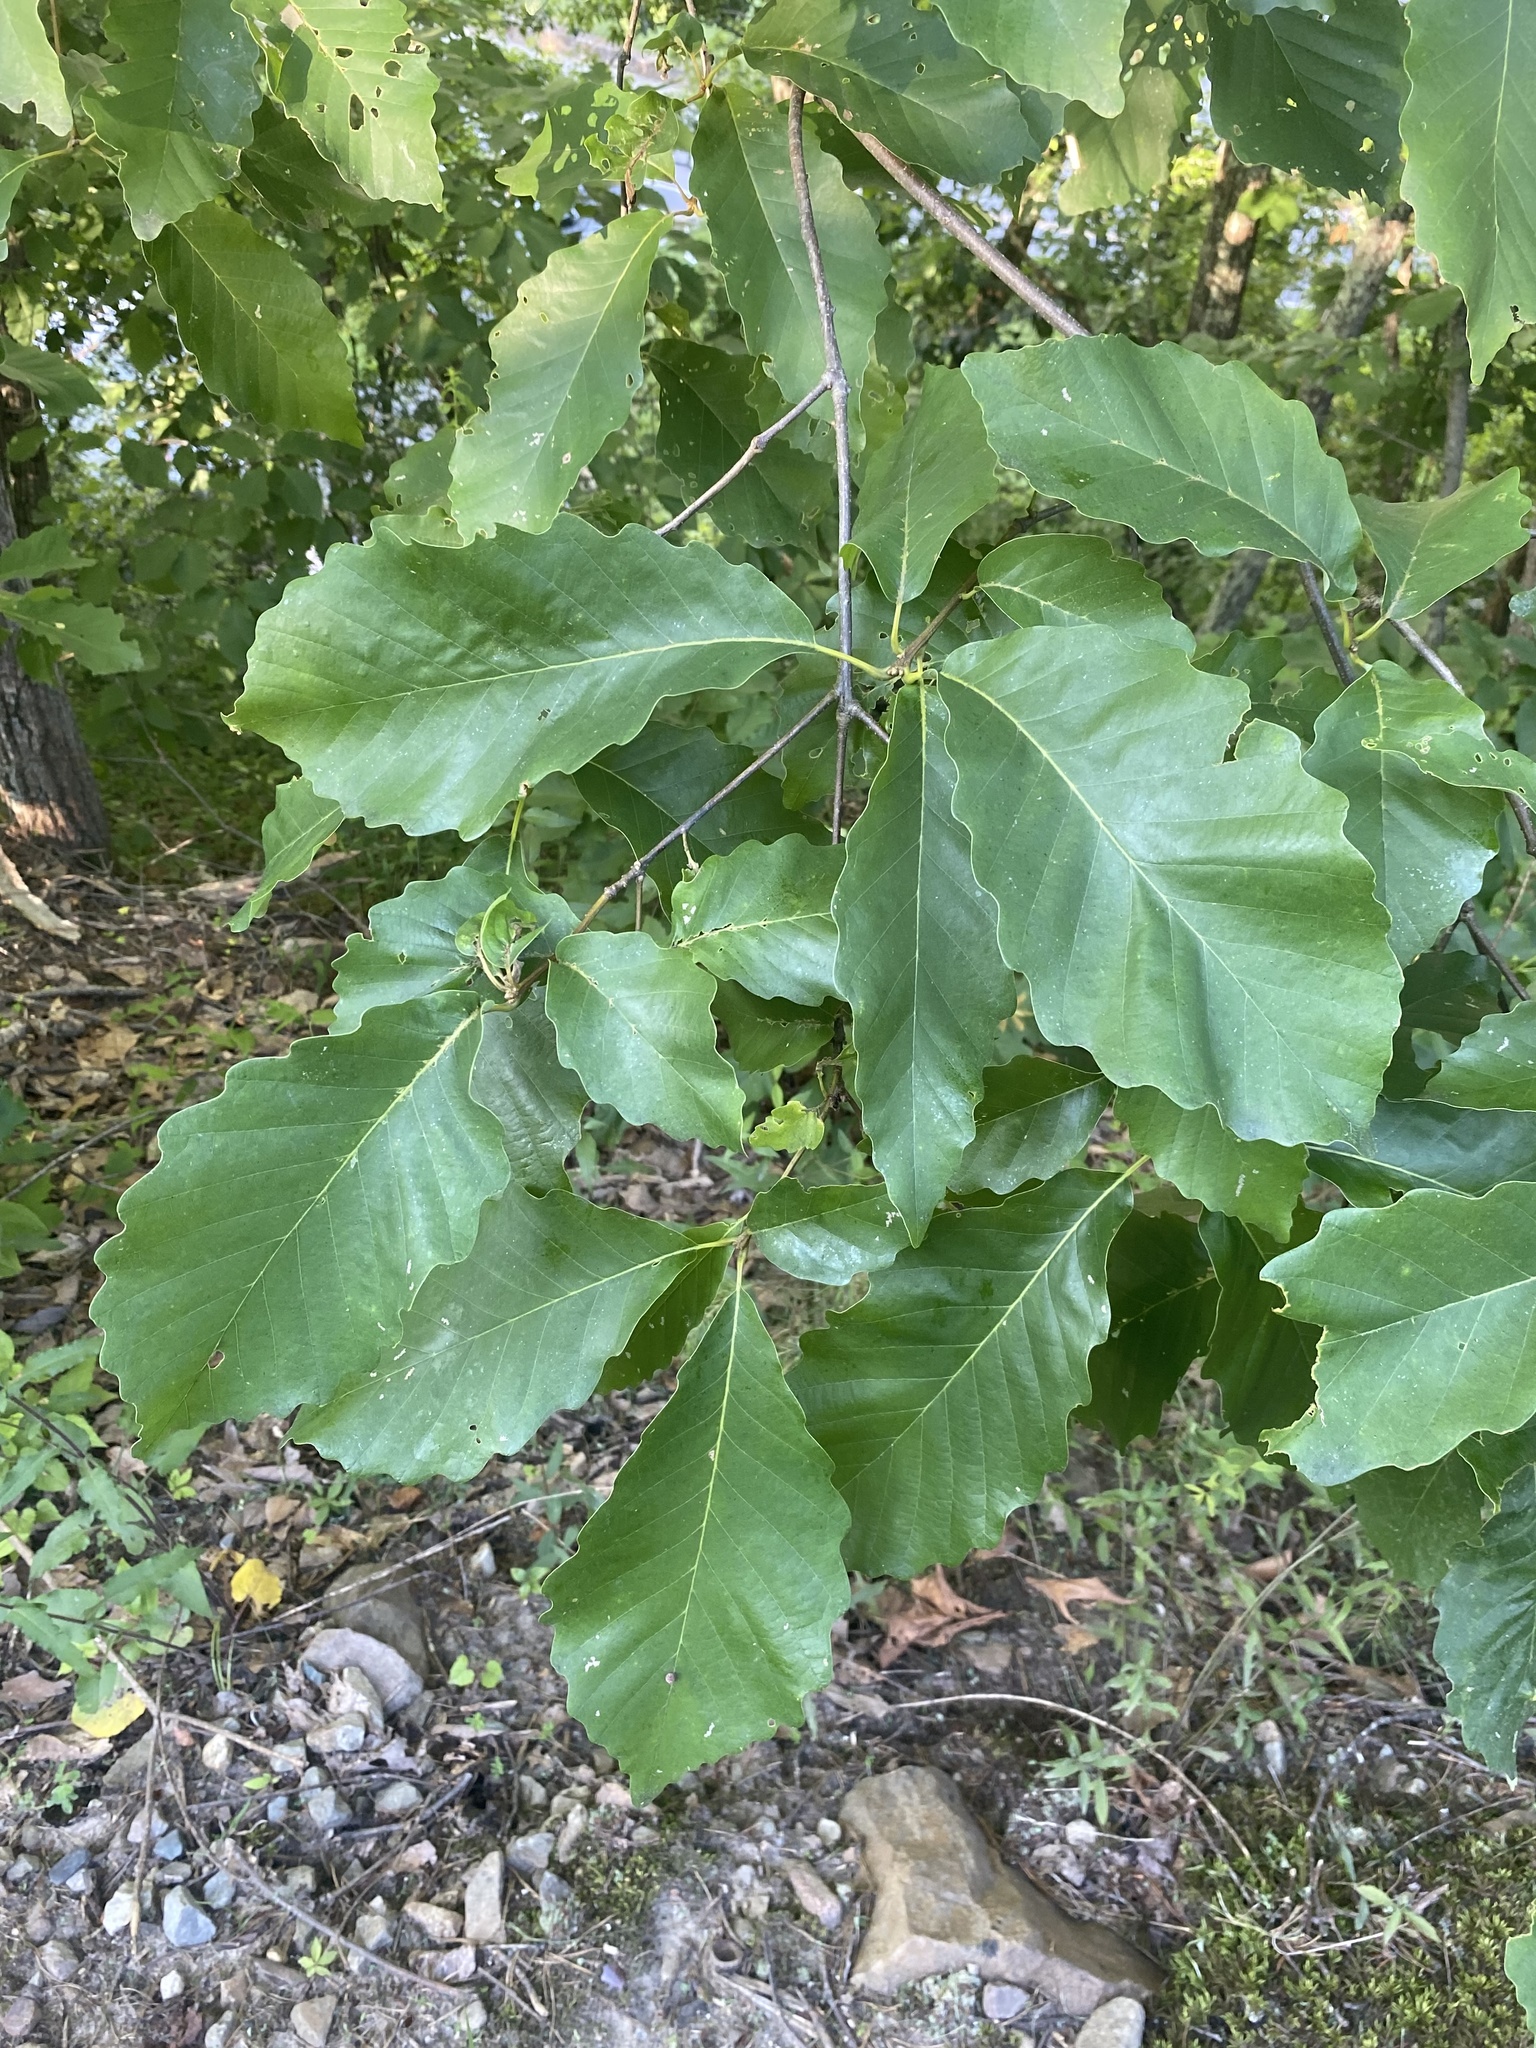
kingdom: Plantae
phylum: Tracheophyta
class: Magnoliopsida
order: Fagales
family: Fagaceae
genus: Quercus
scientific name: Quercus montana
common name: Chestnut oak
